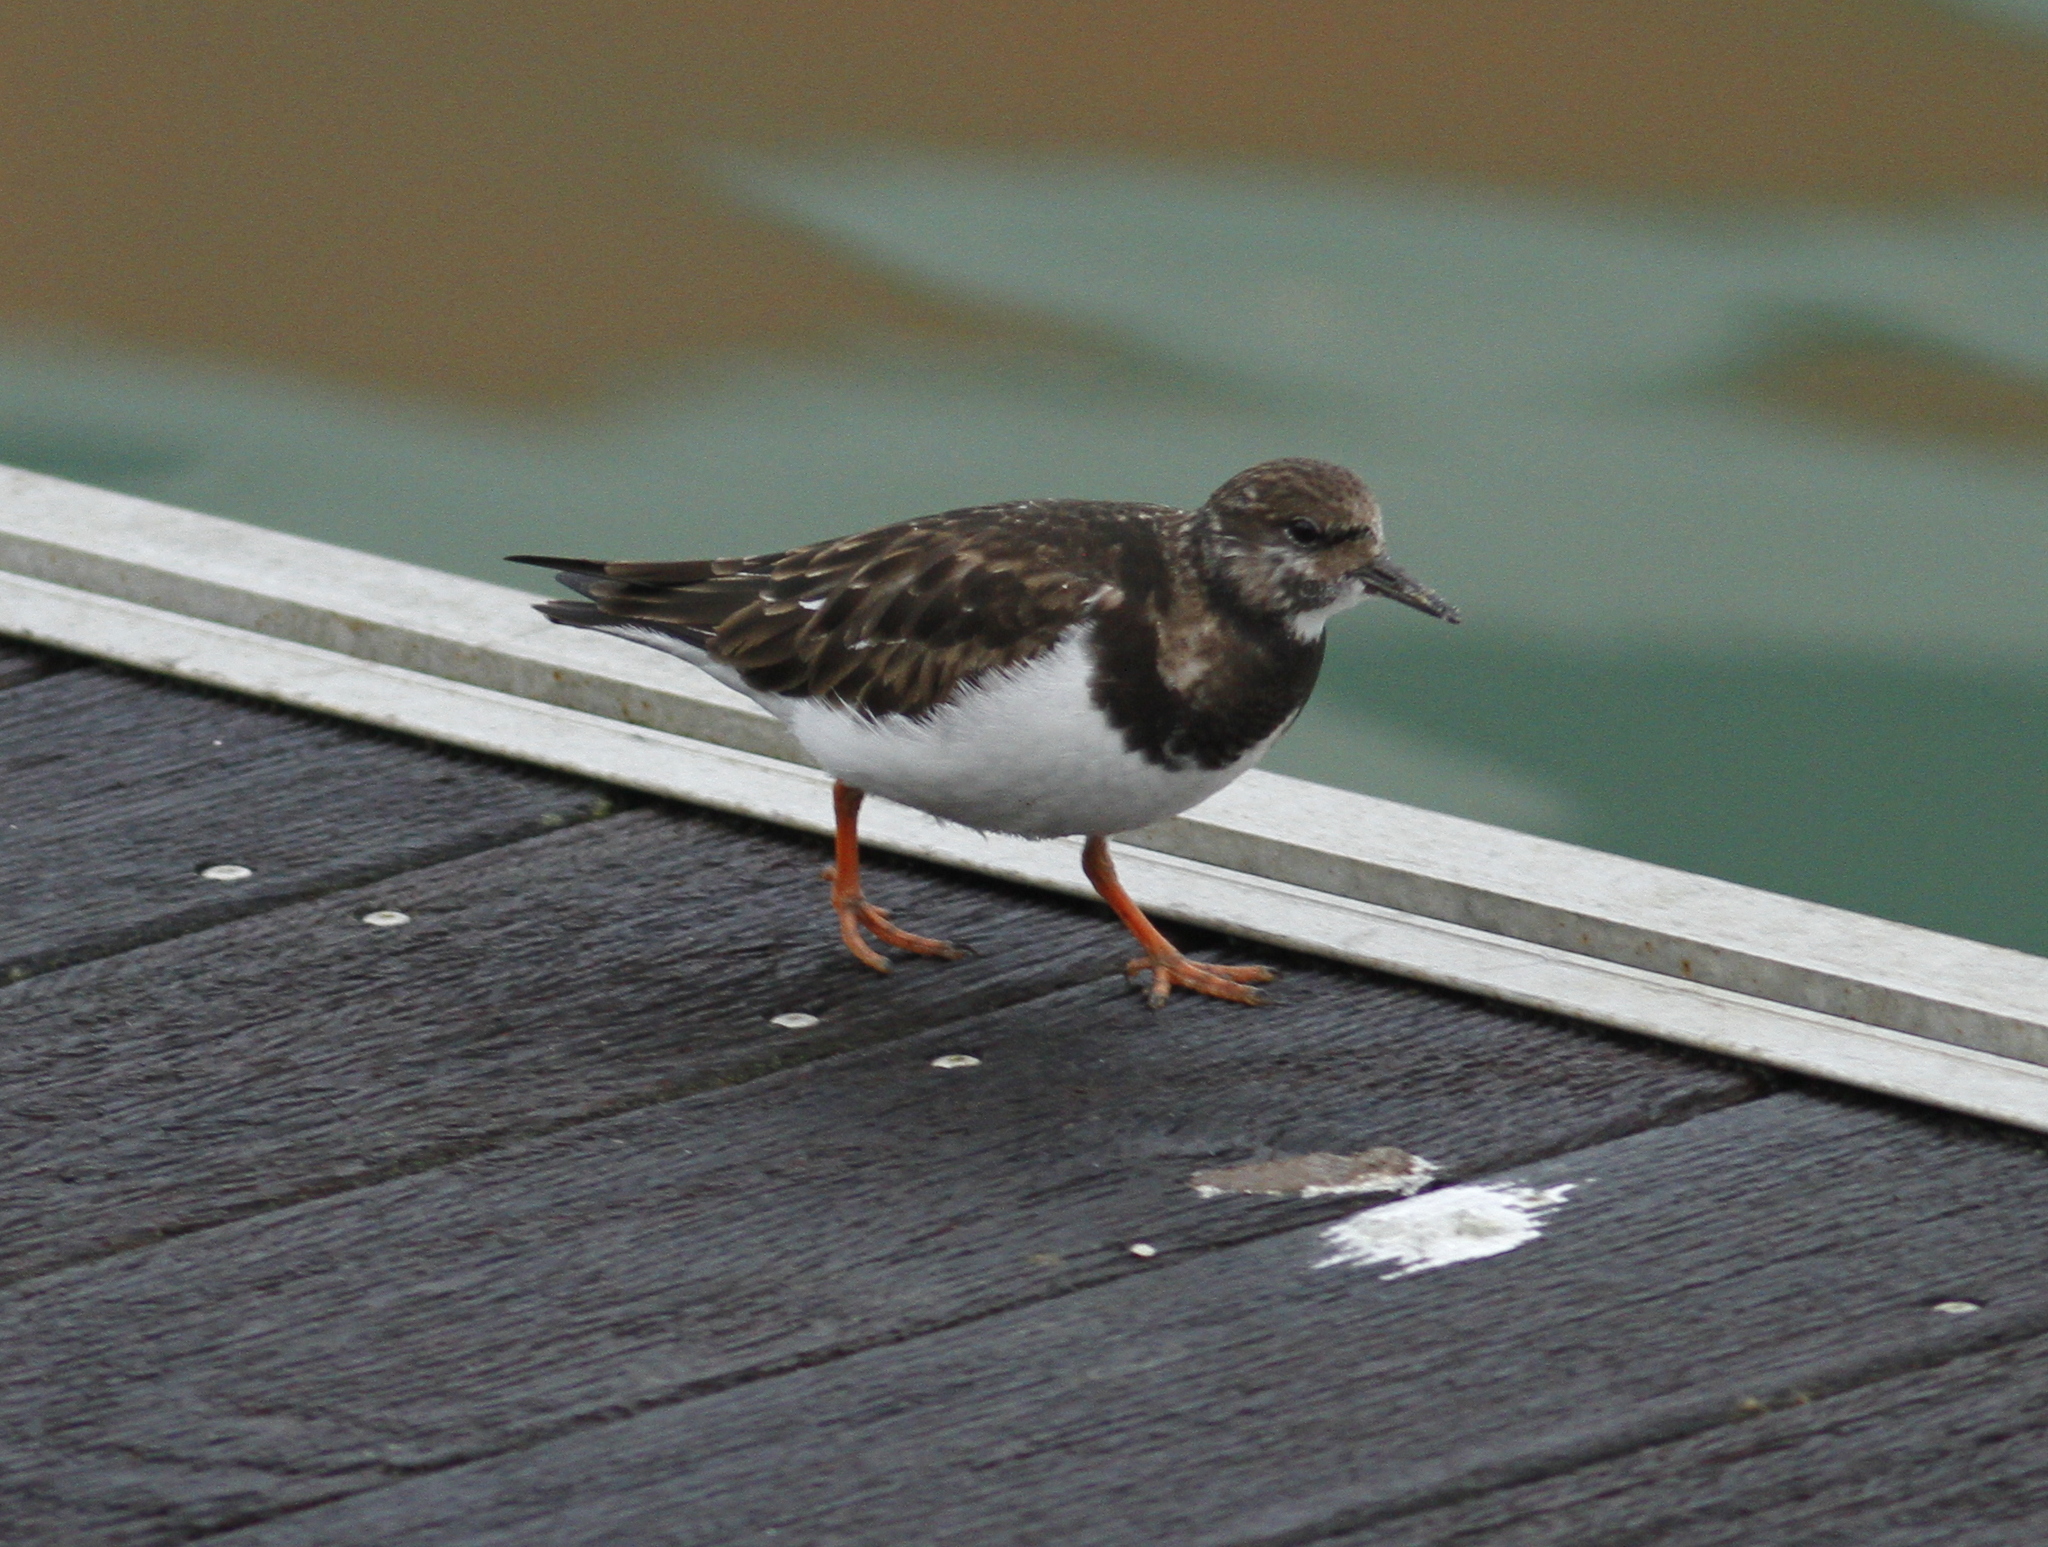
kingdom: Animalia
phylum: Chordata
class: Aves
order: Charadriiformes
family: Scolopacidae
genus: Arenaria
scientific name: Arenaria interpres
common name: Ruddy turnstone
